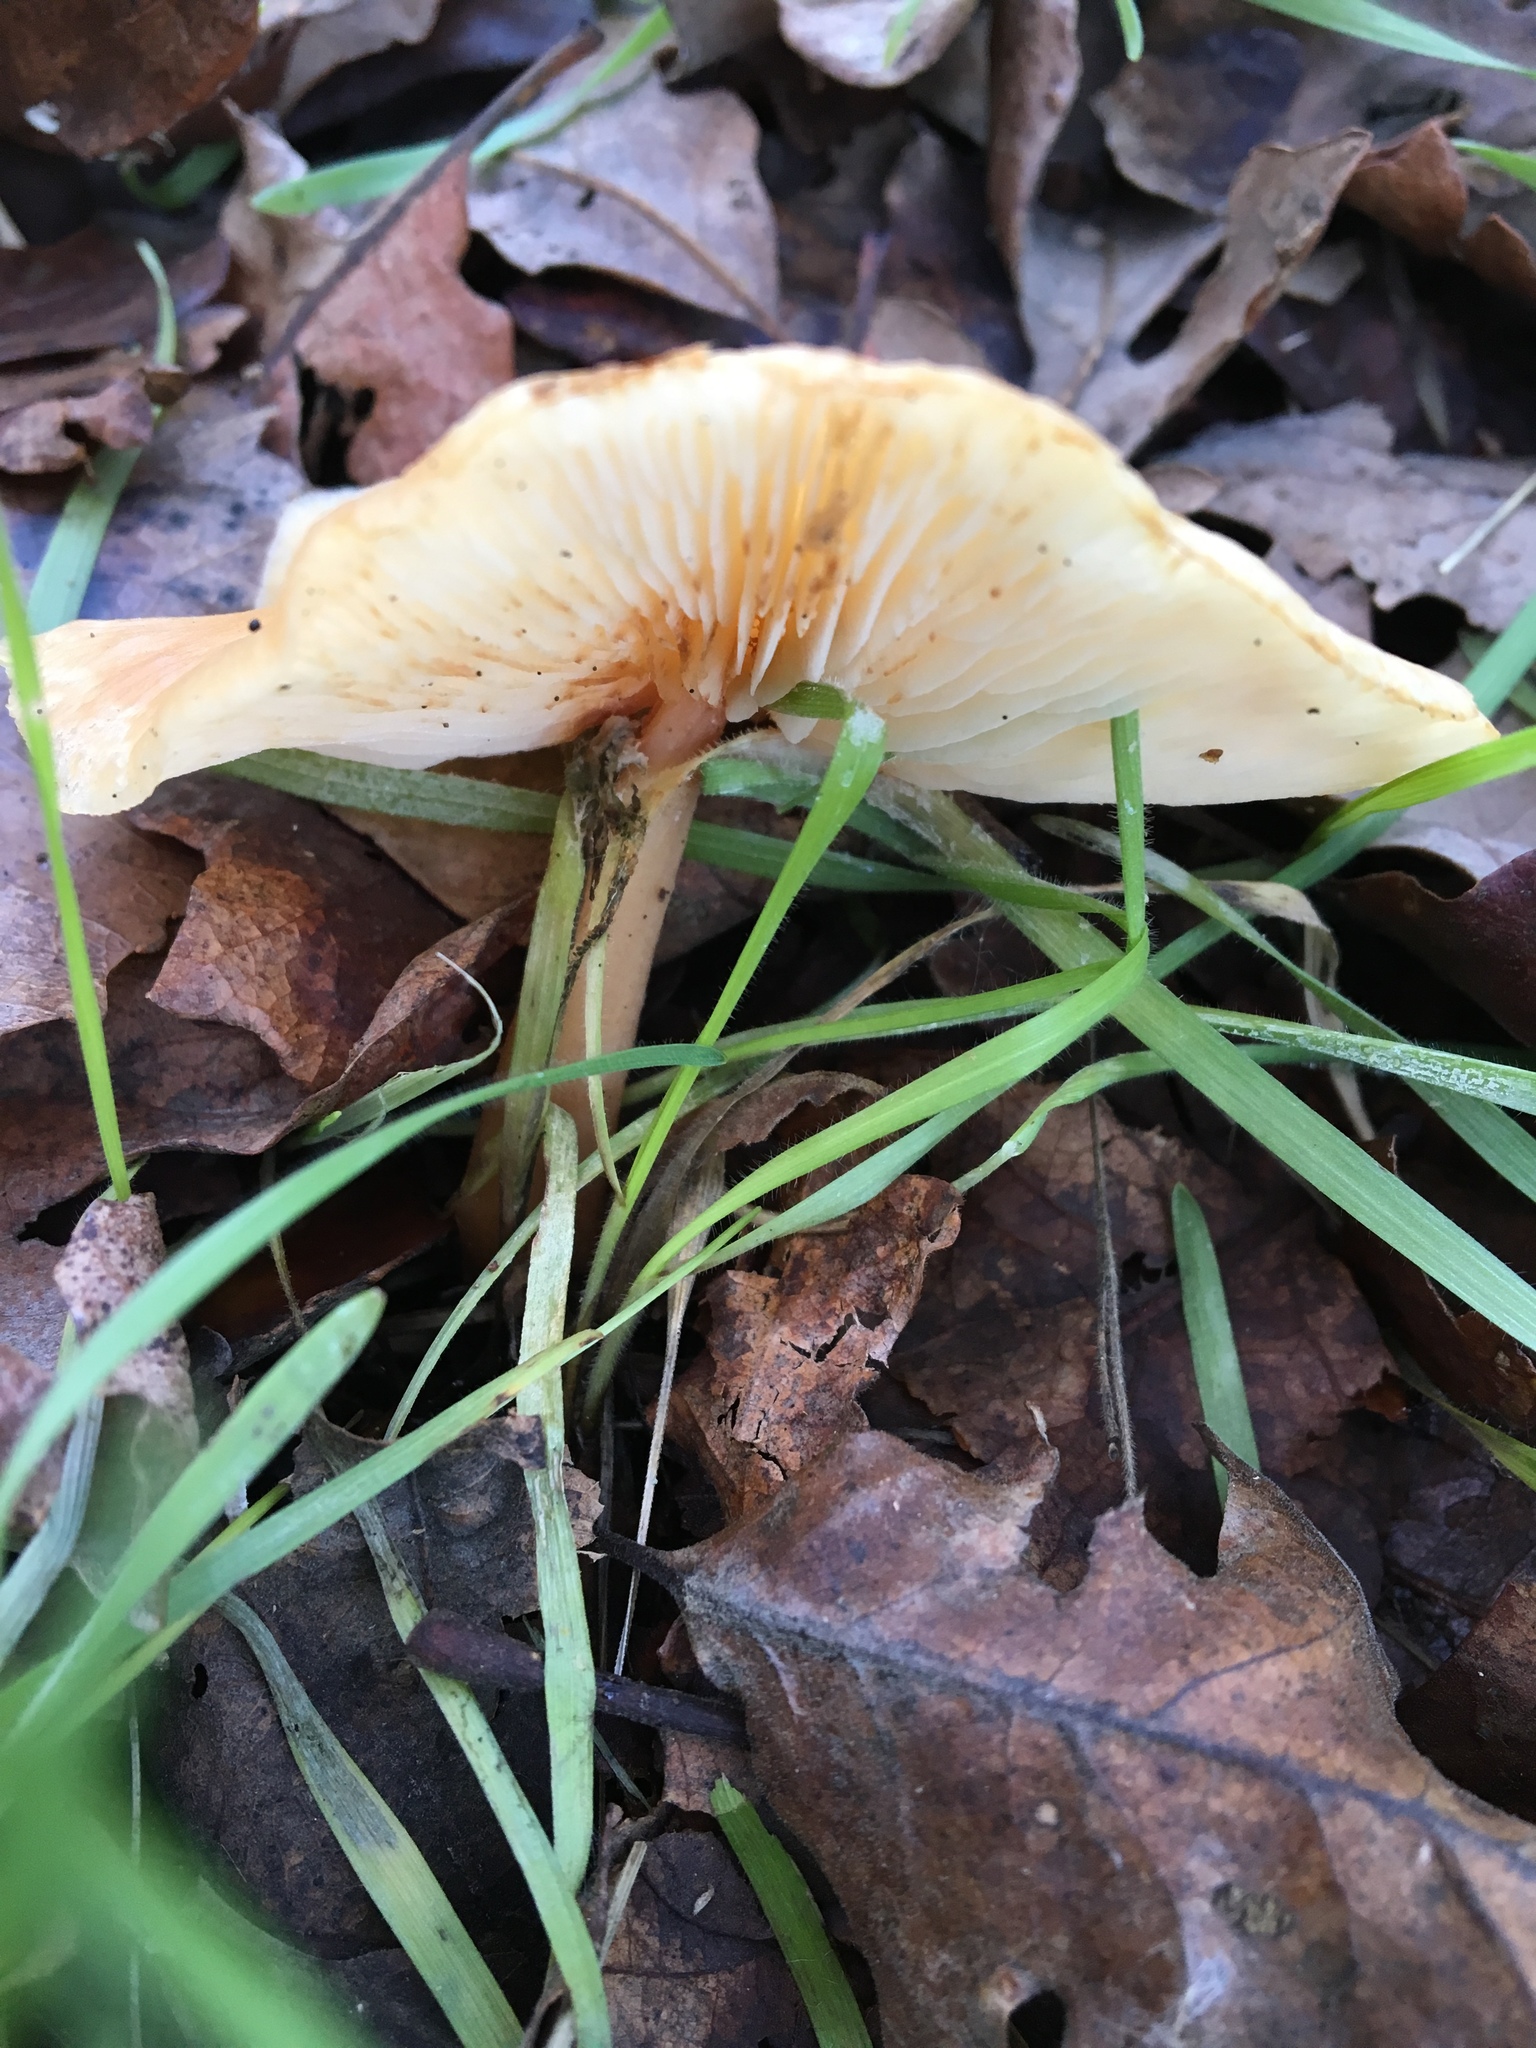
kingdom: Fungi
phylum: Basidiomycota
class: Agaricomycetes
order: Agaricales
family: Omphalotaceae
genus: Gymnopus
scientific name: Gymnopus dryophilus
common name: Penny top
